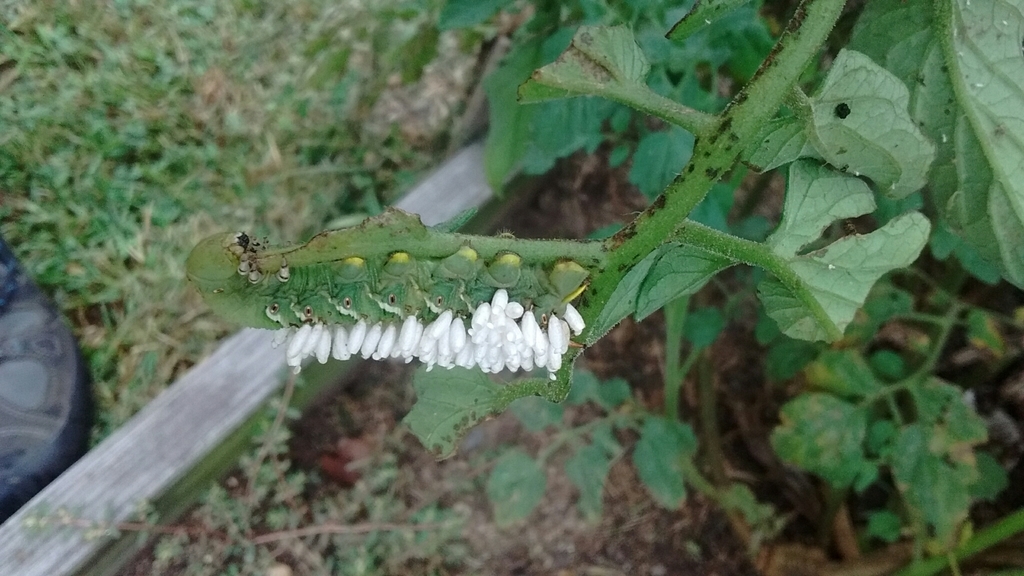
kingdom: Animalia
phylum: Arthropoda
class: Insecta
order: Lepidoptera
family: Sphingidae
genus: Manduca
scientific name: Manduca sexta
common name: Carolina sphinx
